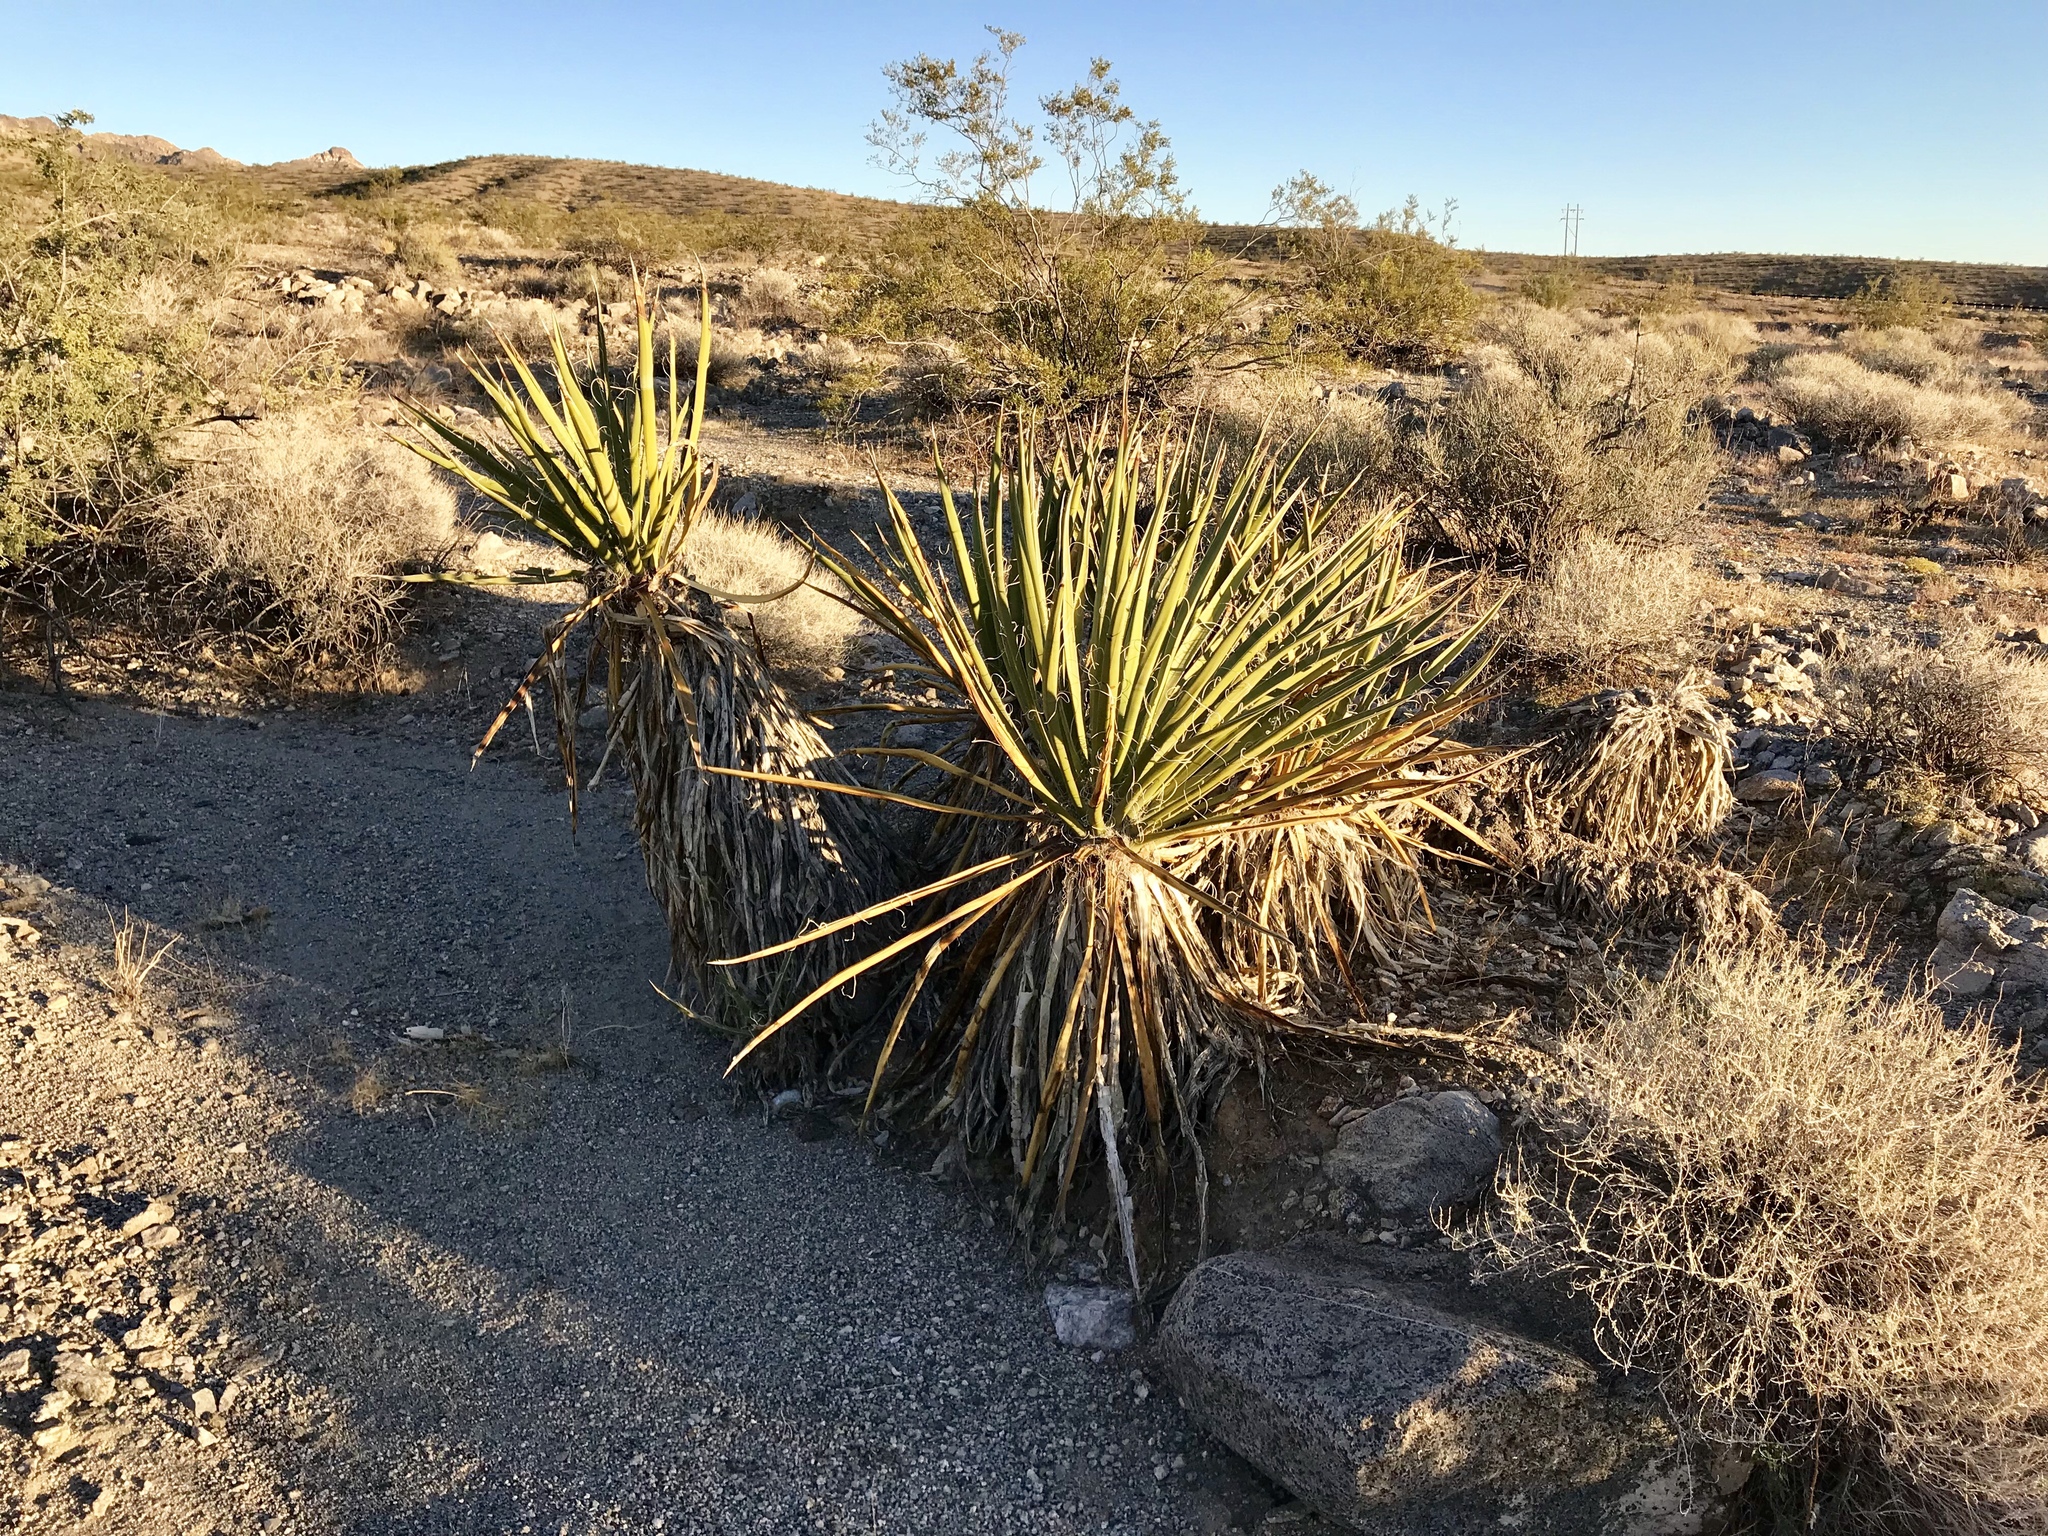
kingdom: Plantae
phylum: Tracheophyta
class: Liliopsida
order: Asparagales
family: Asparagaceae
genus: Yucca
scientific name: Yucca schidigera
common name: Mojave yucca
